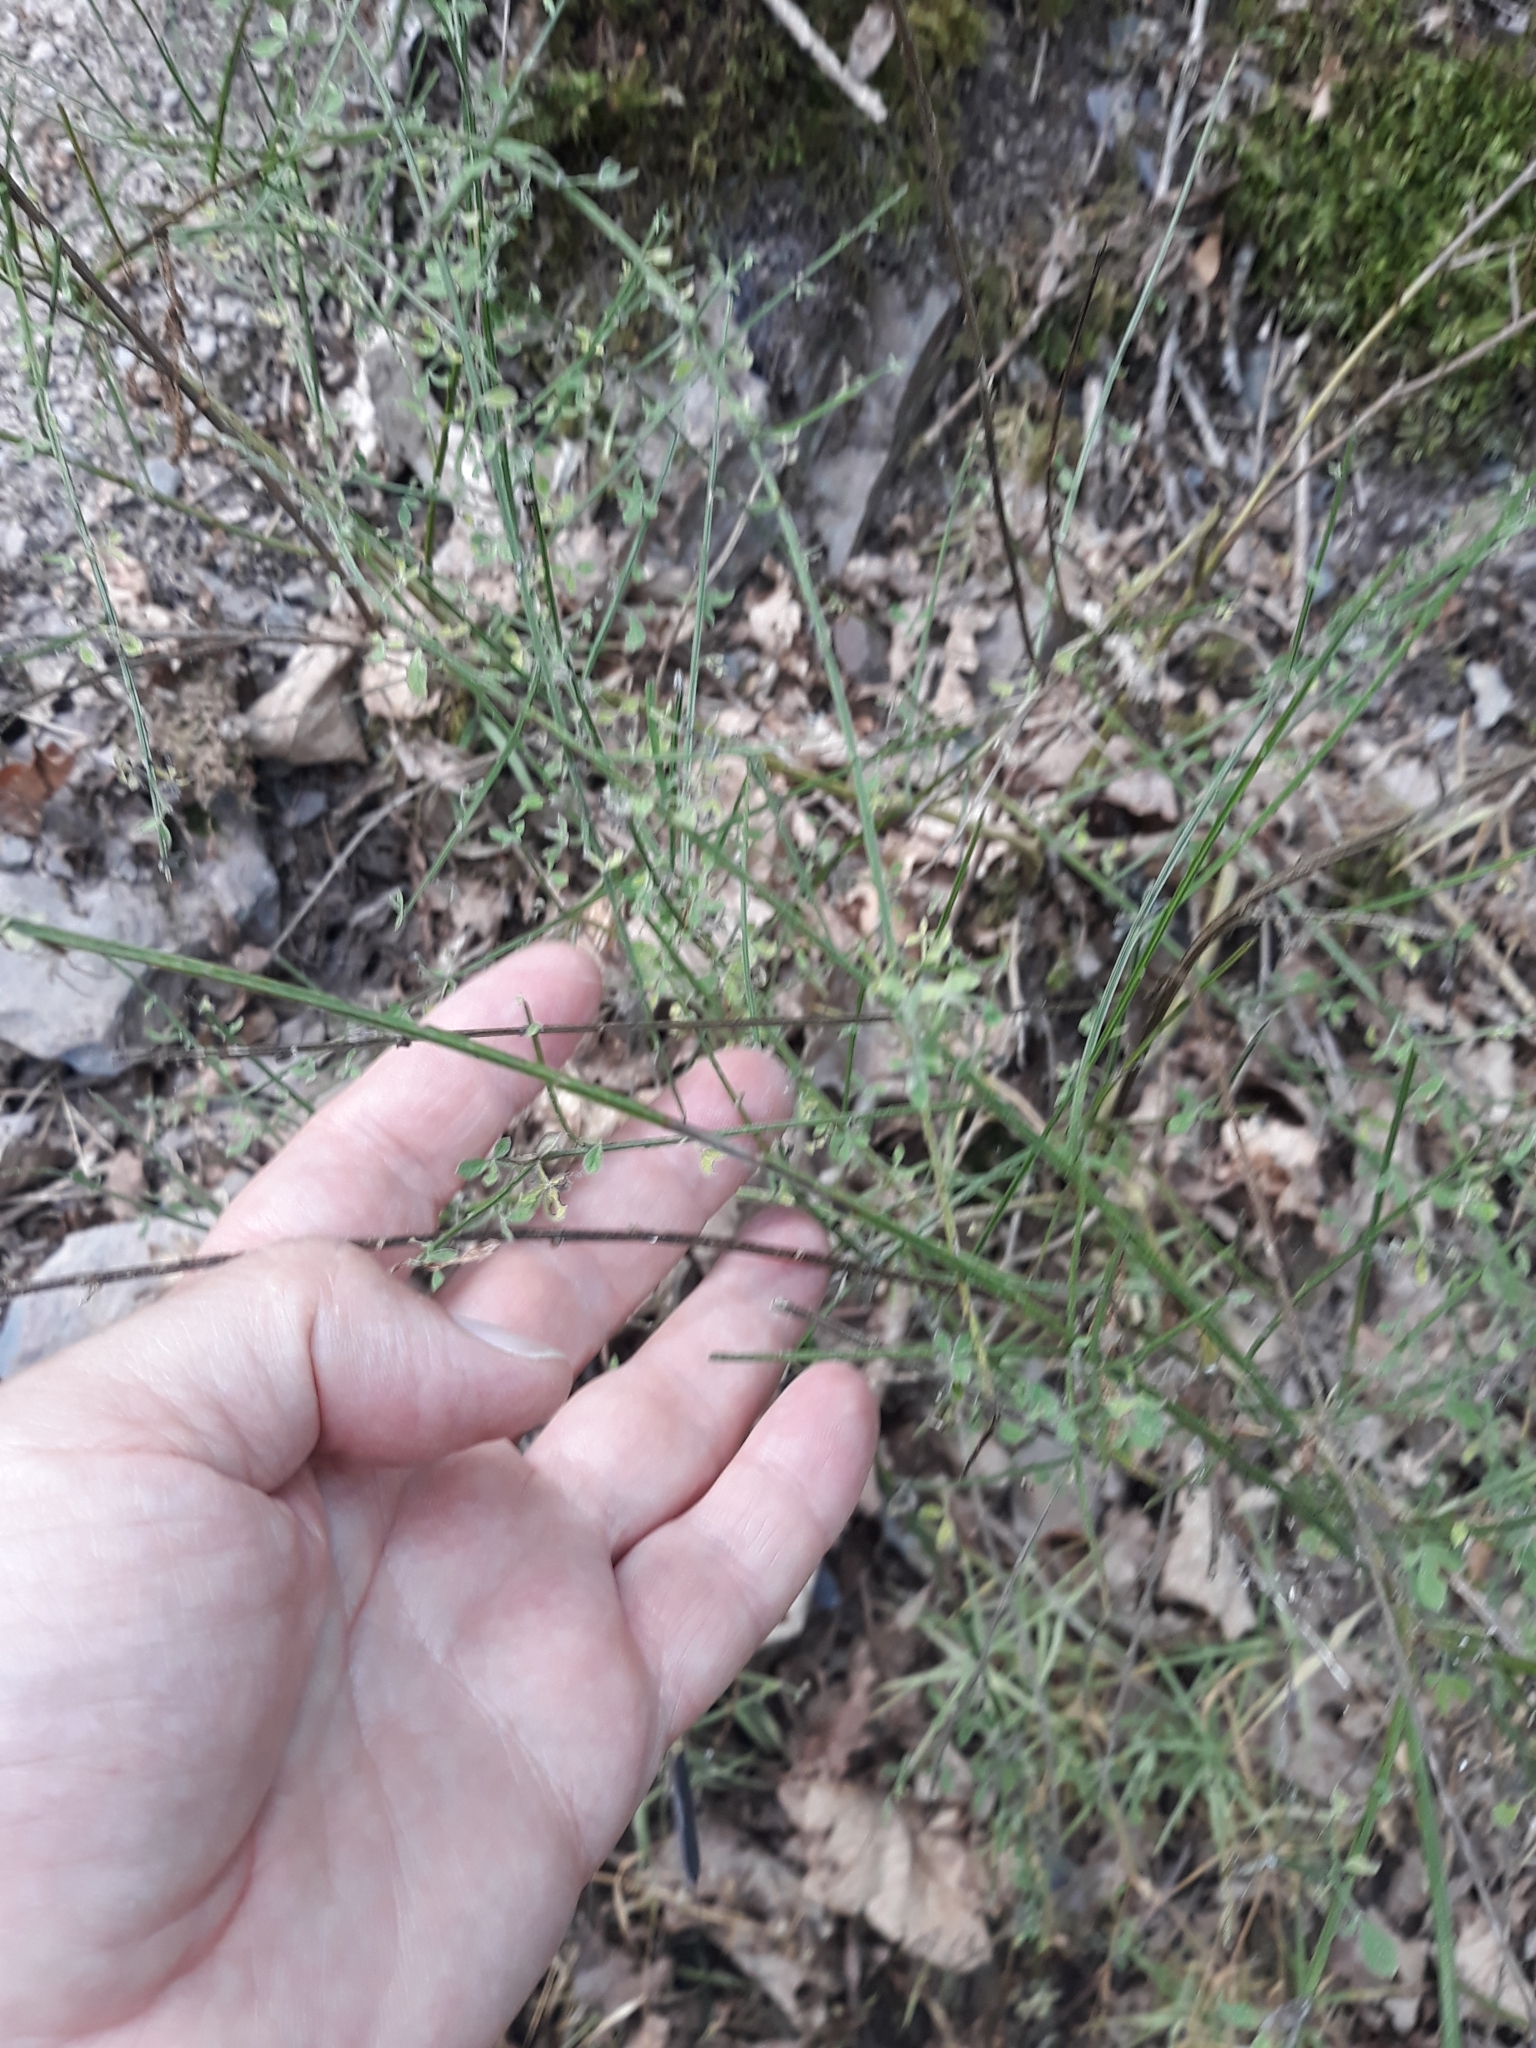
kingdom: Plantae
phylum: Tracheophyta
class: Magnoliopsida
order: Fabales
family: Fabaceae
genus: Cytisus
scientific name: Cytisus scoparius
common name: Scotch broom
